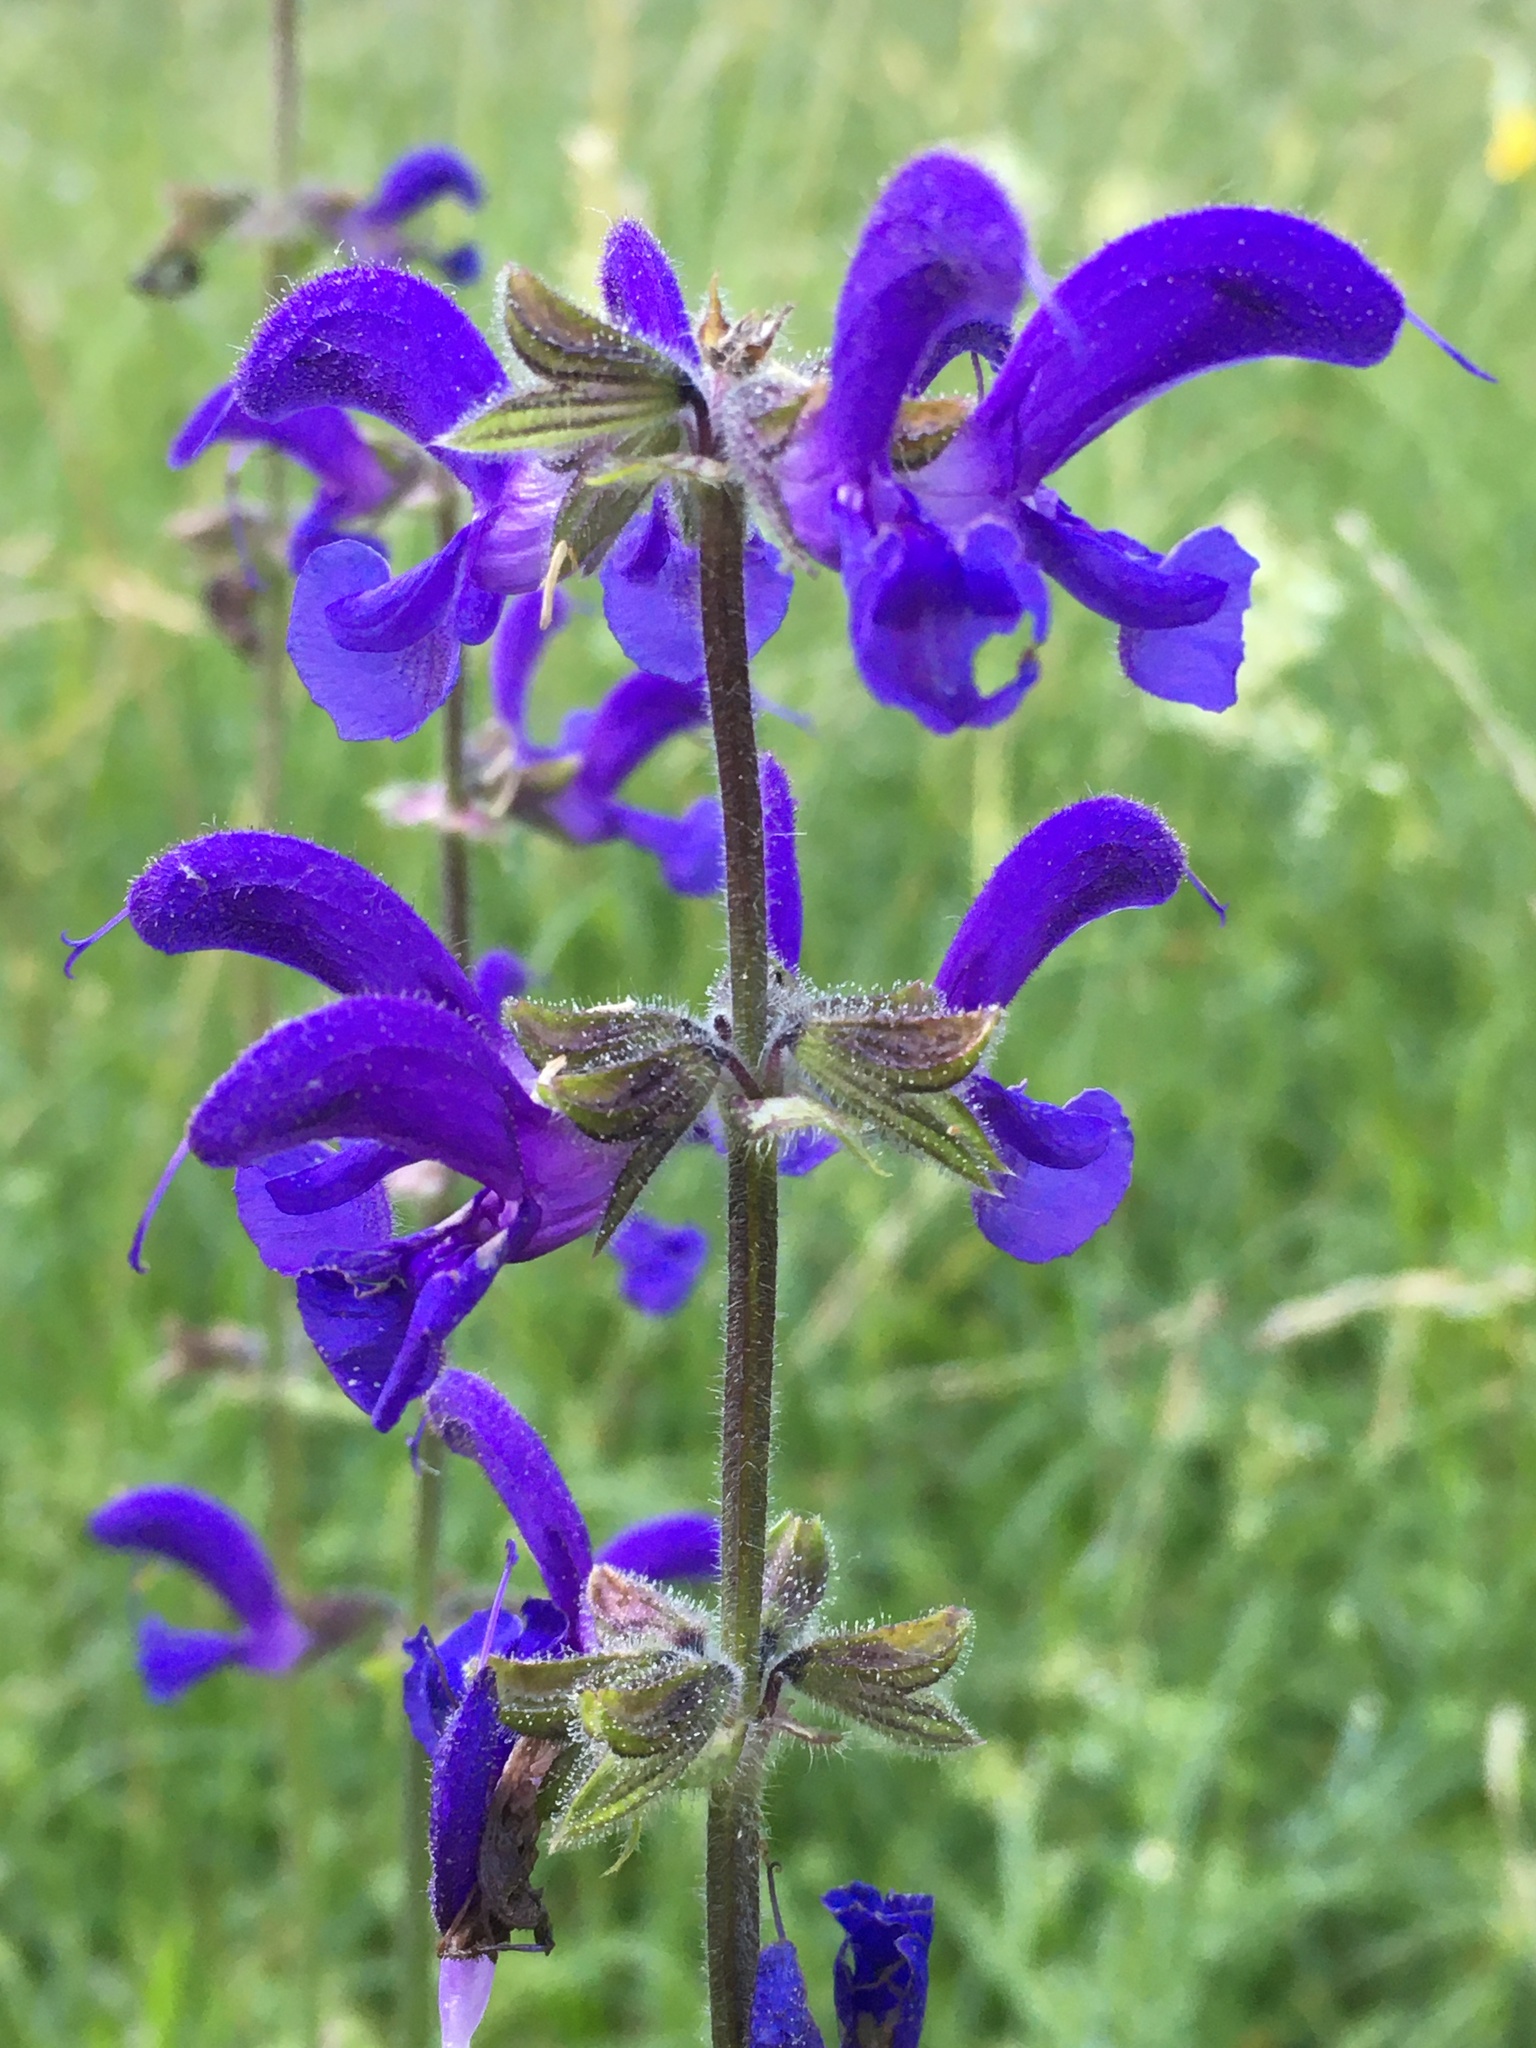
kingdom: Plantae
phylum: Tracheophyta
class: Magnoliopsida
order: Lamiales
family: Lamiaceae
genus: Salvia
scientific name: Salvia pratensis
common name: Meadow sage
